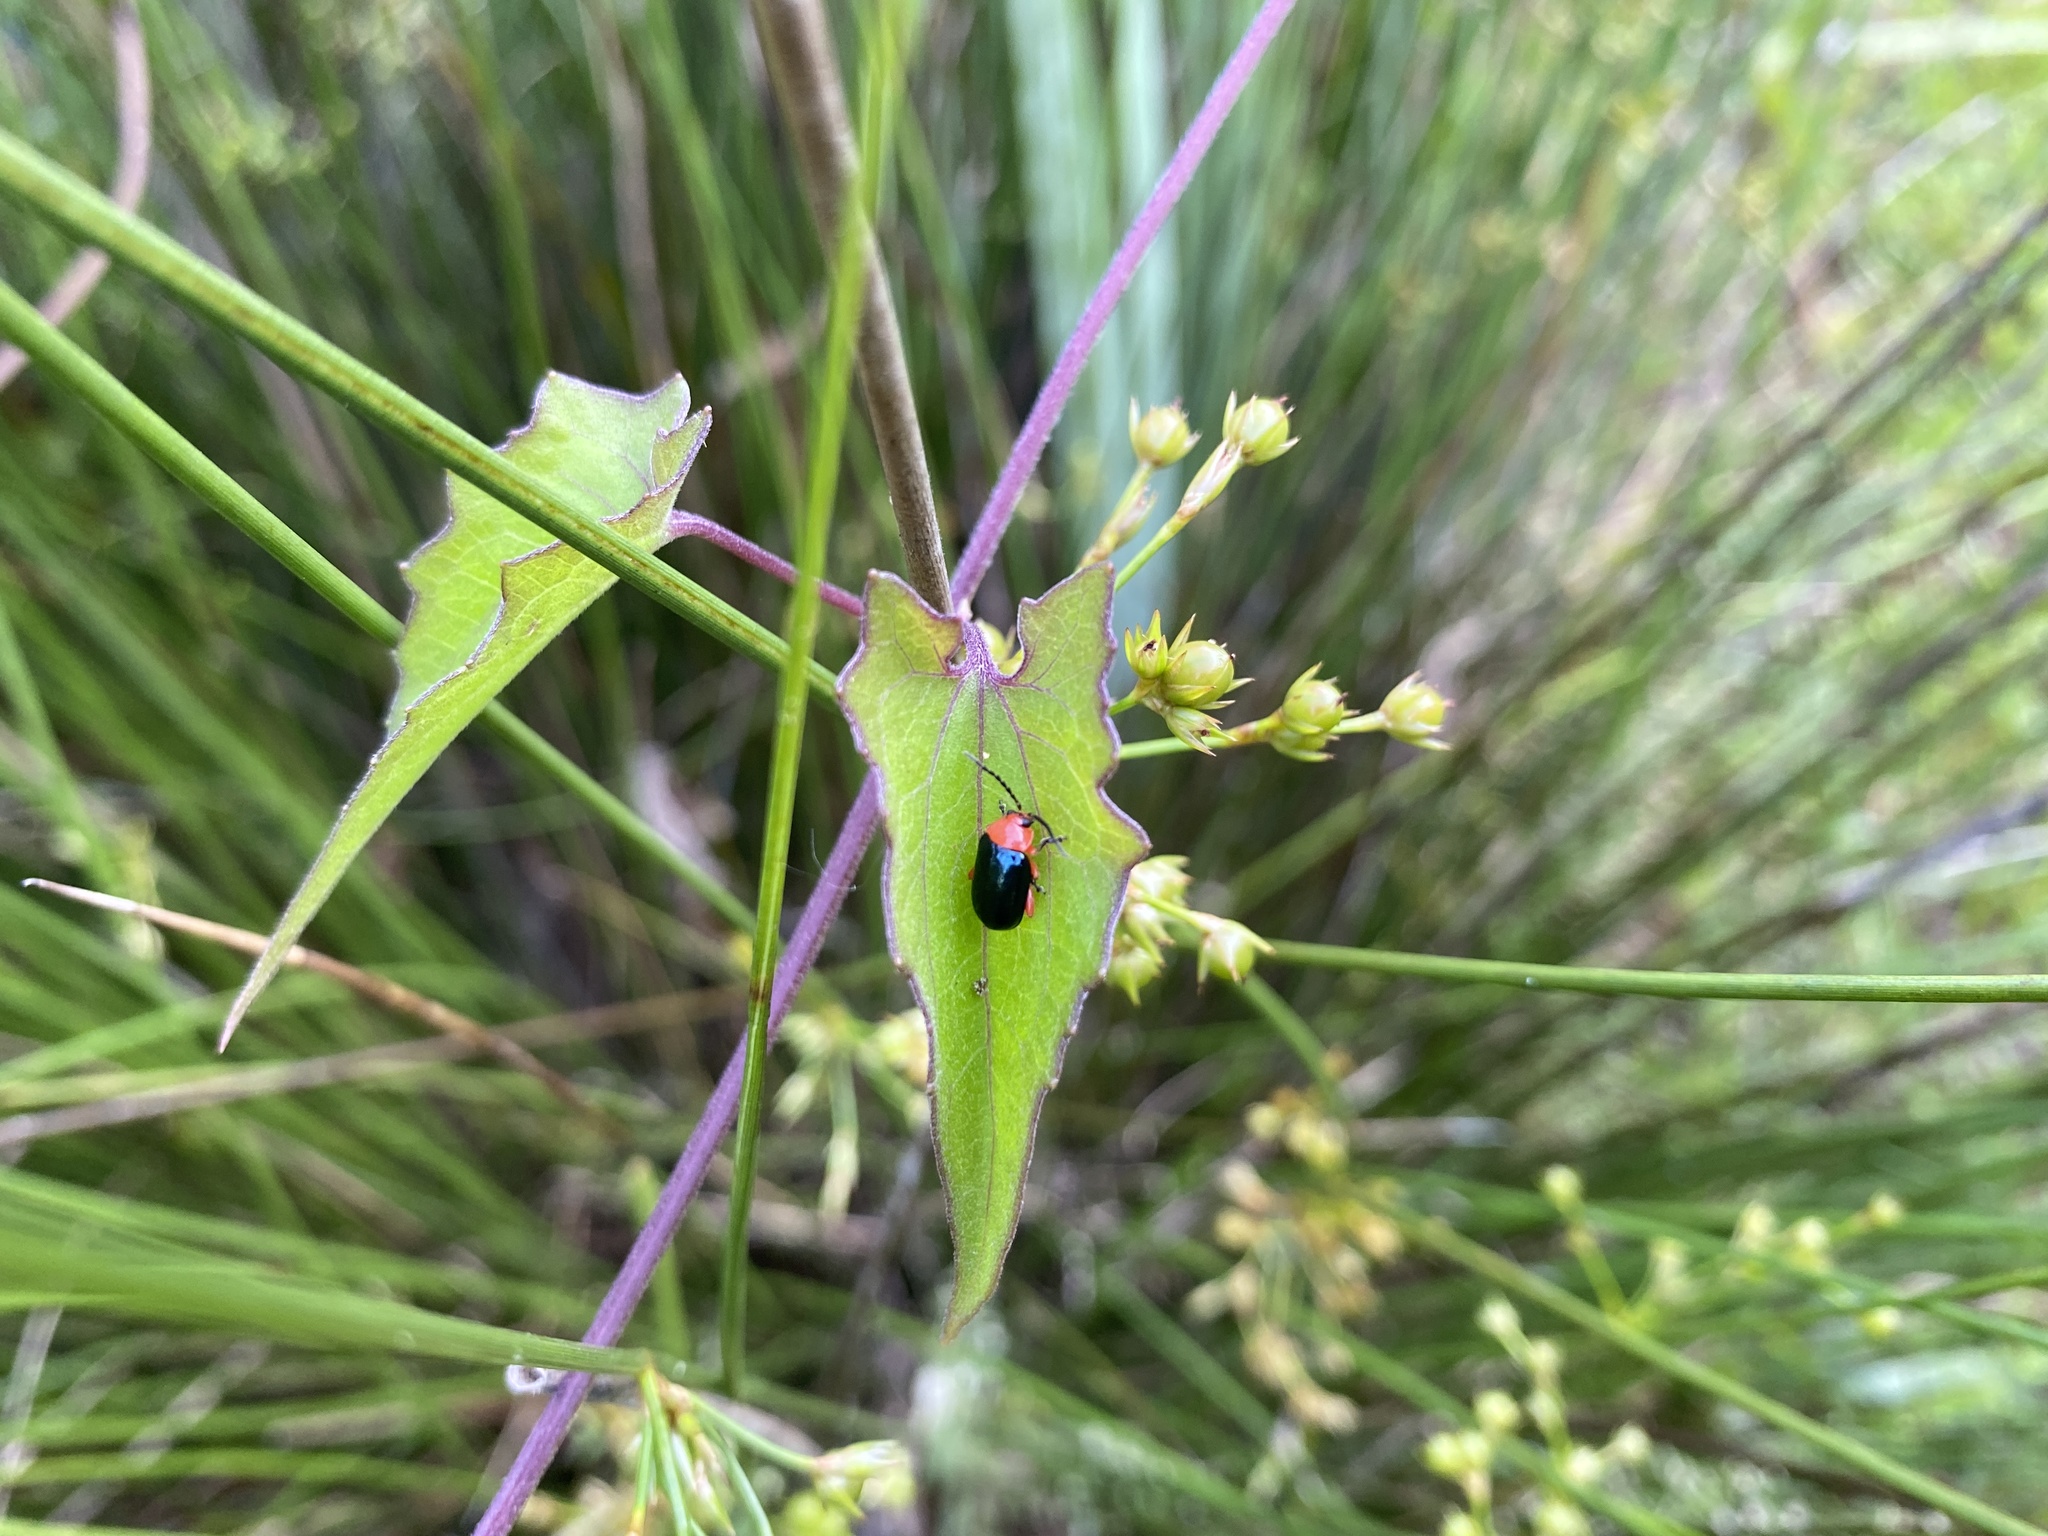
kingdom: Animalia
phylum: Arthropoda
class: Insecta
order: Coleoptera
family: Chrysomelidae
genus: Asphaera
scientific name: Asphaera lustrans
